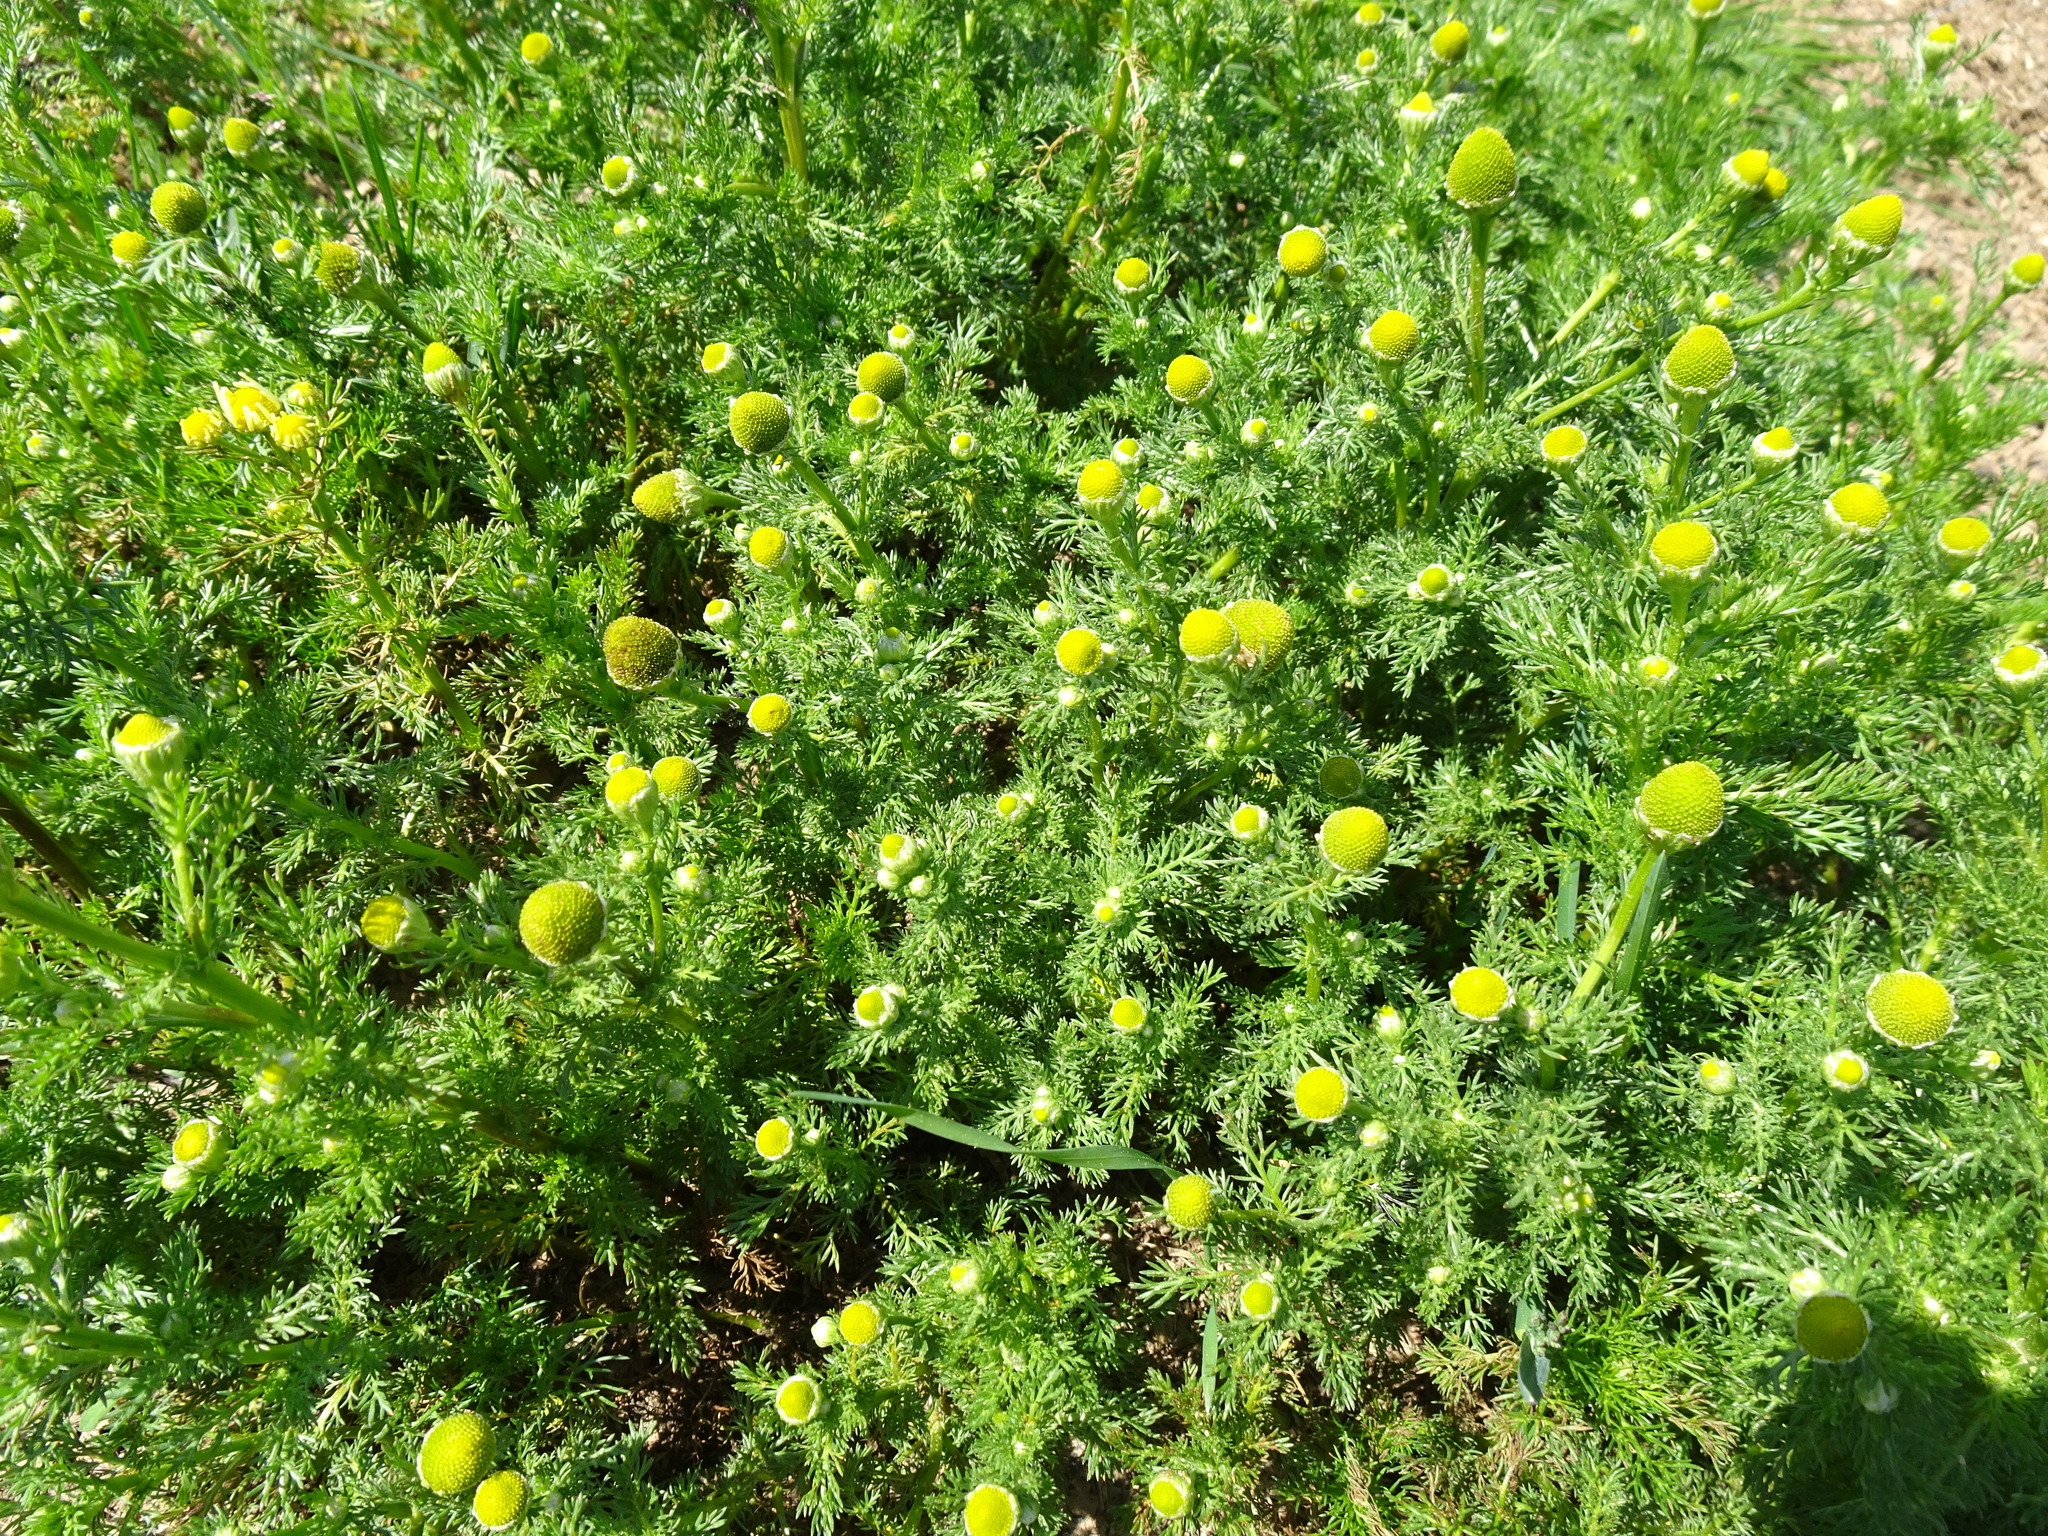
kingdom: Plantae
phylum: Tracheophyta
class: Magnoliopsida
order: Asterales
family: Asteraceae
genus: Matricaria
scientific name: Matricaria discoidea
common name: Disc mayweed
